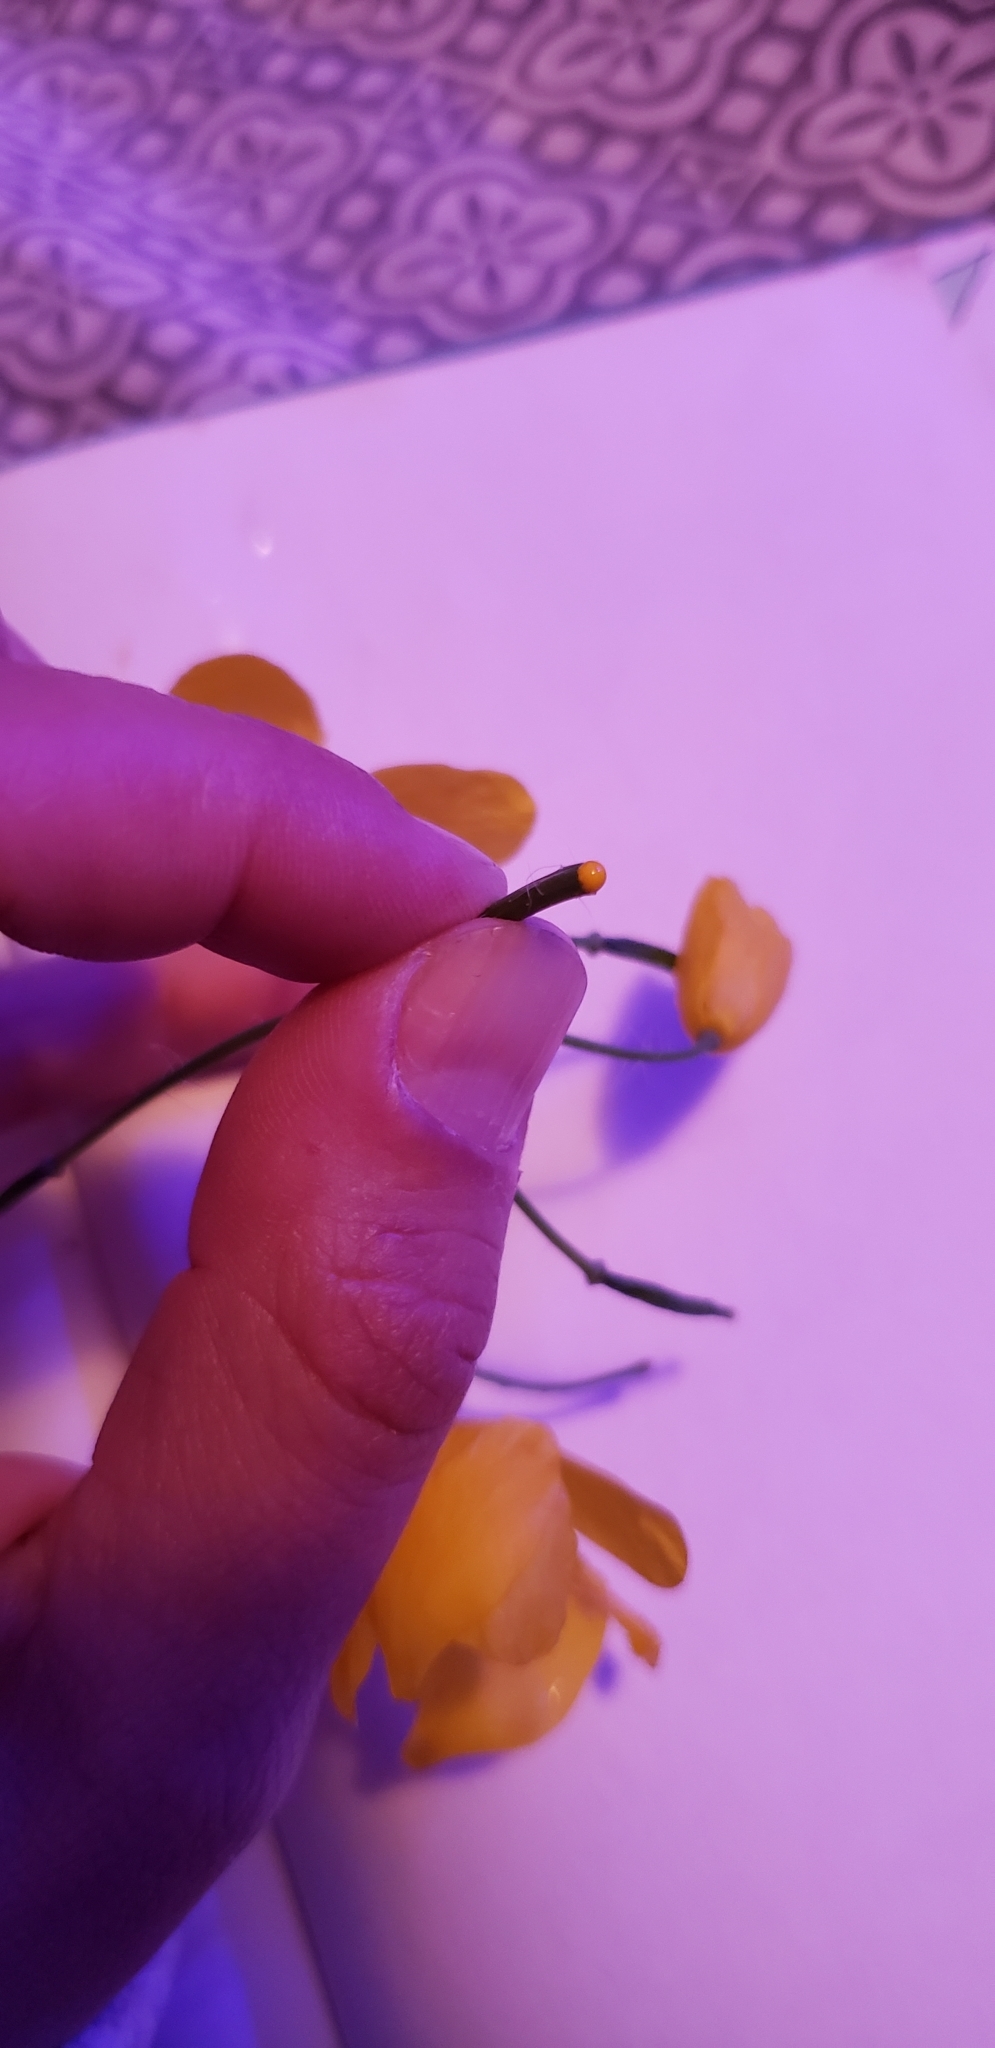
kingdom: Plantae
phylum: Tracheophyta
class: Magnoliopsida
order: Ranunculales
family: Papaveraceae
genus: Chelidonium
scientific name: Chelidonium majus
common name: Greater celandine
